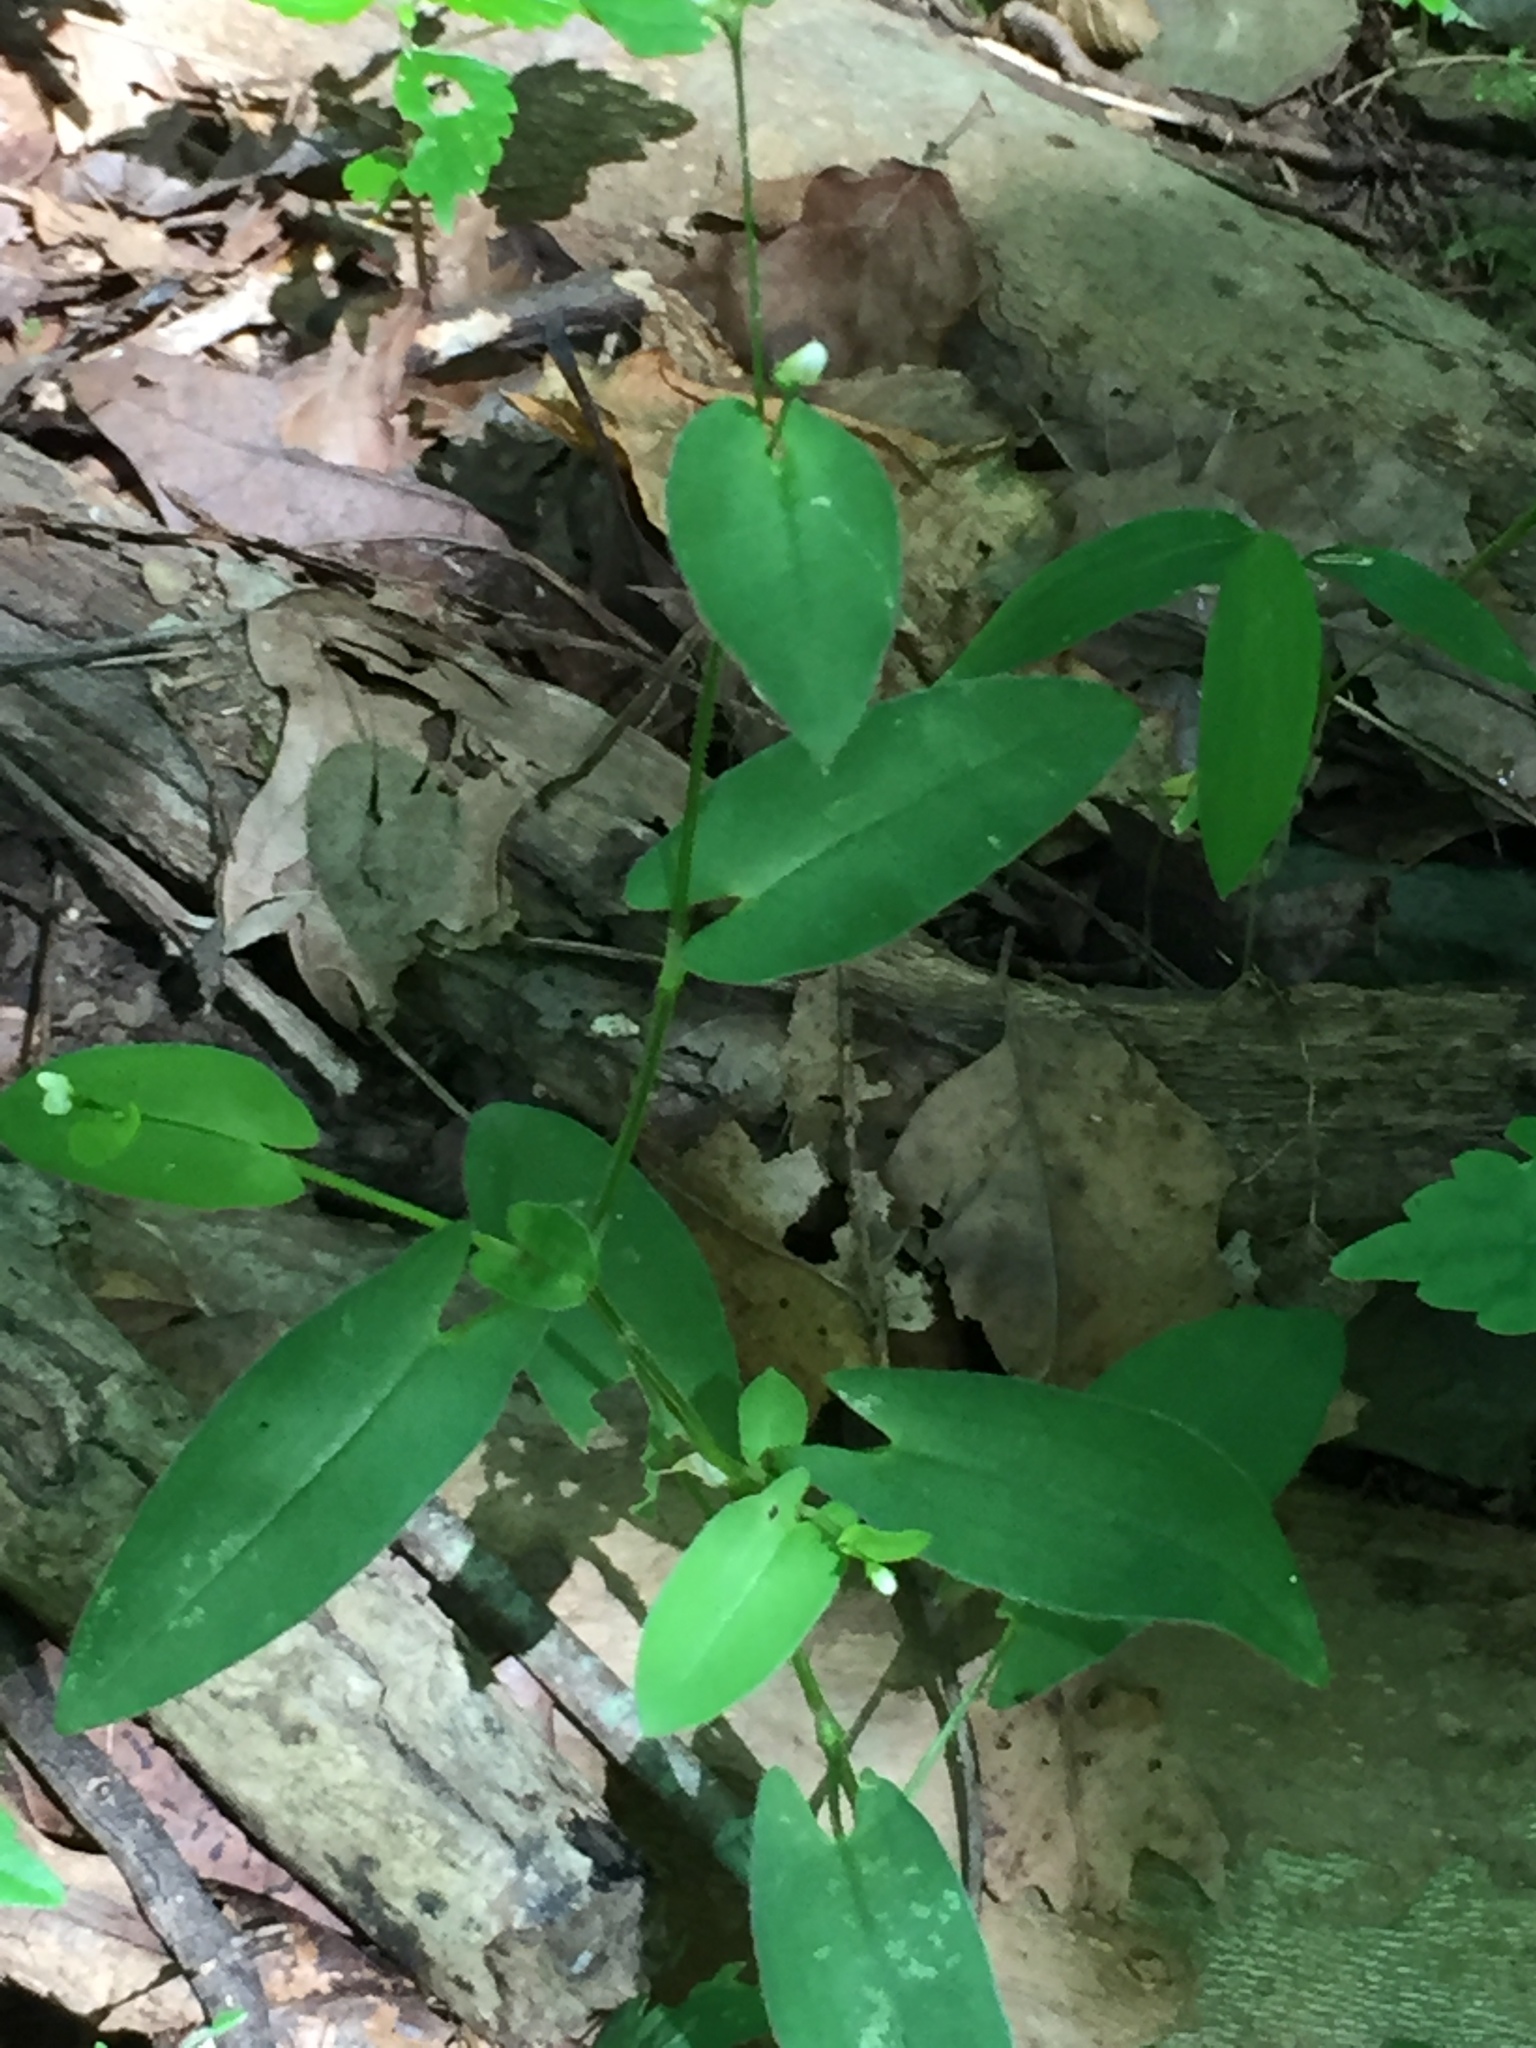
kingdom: Plantae
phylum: Tracheophyta
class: Magnoliopsida
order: Caryophyllales
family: Polygonaceae
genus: Persicaria
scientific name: Persicaria sagittata
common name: American tearthumb
